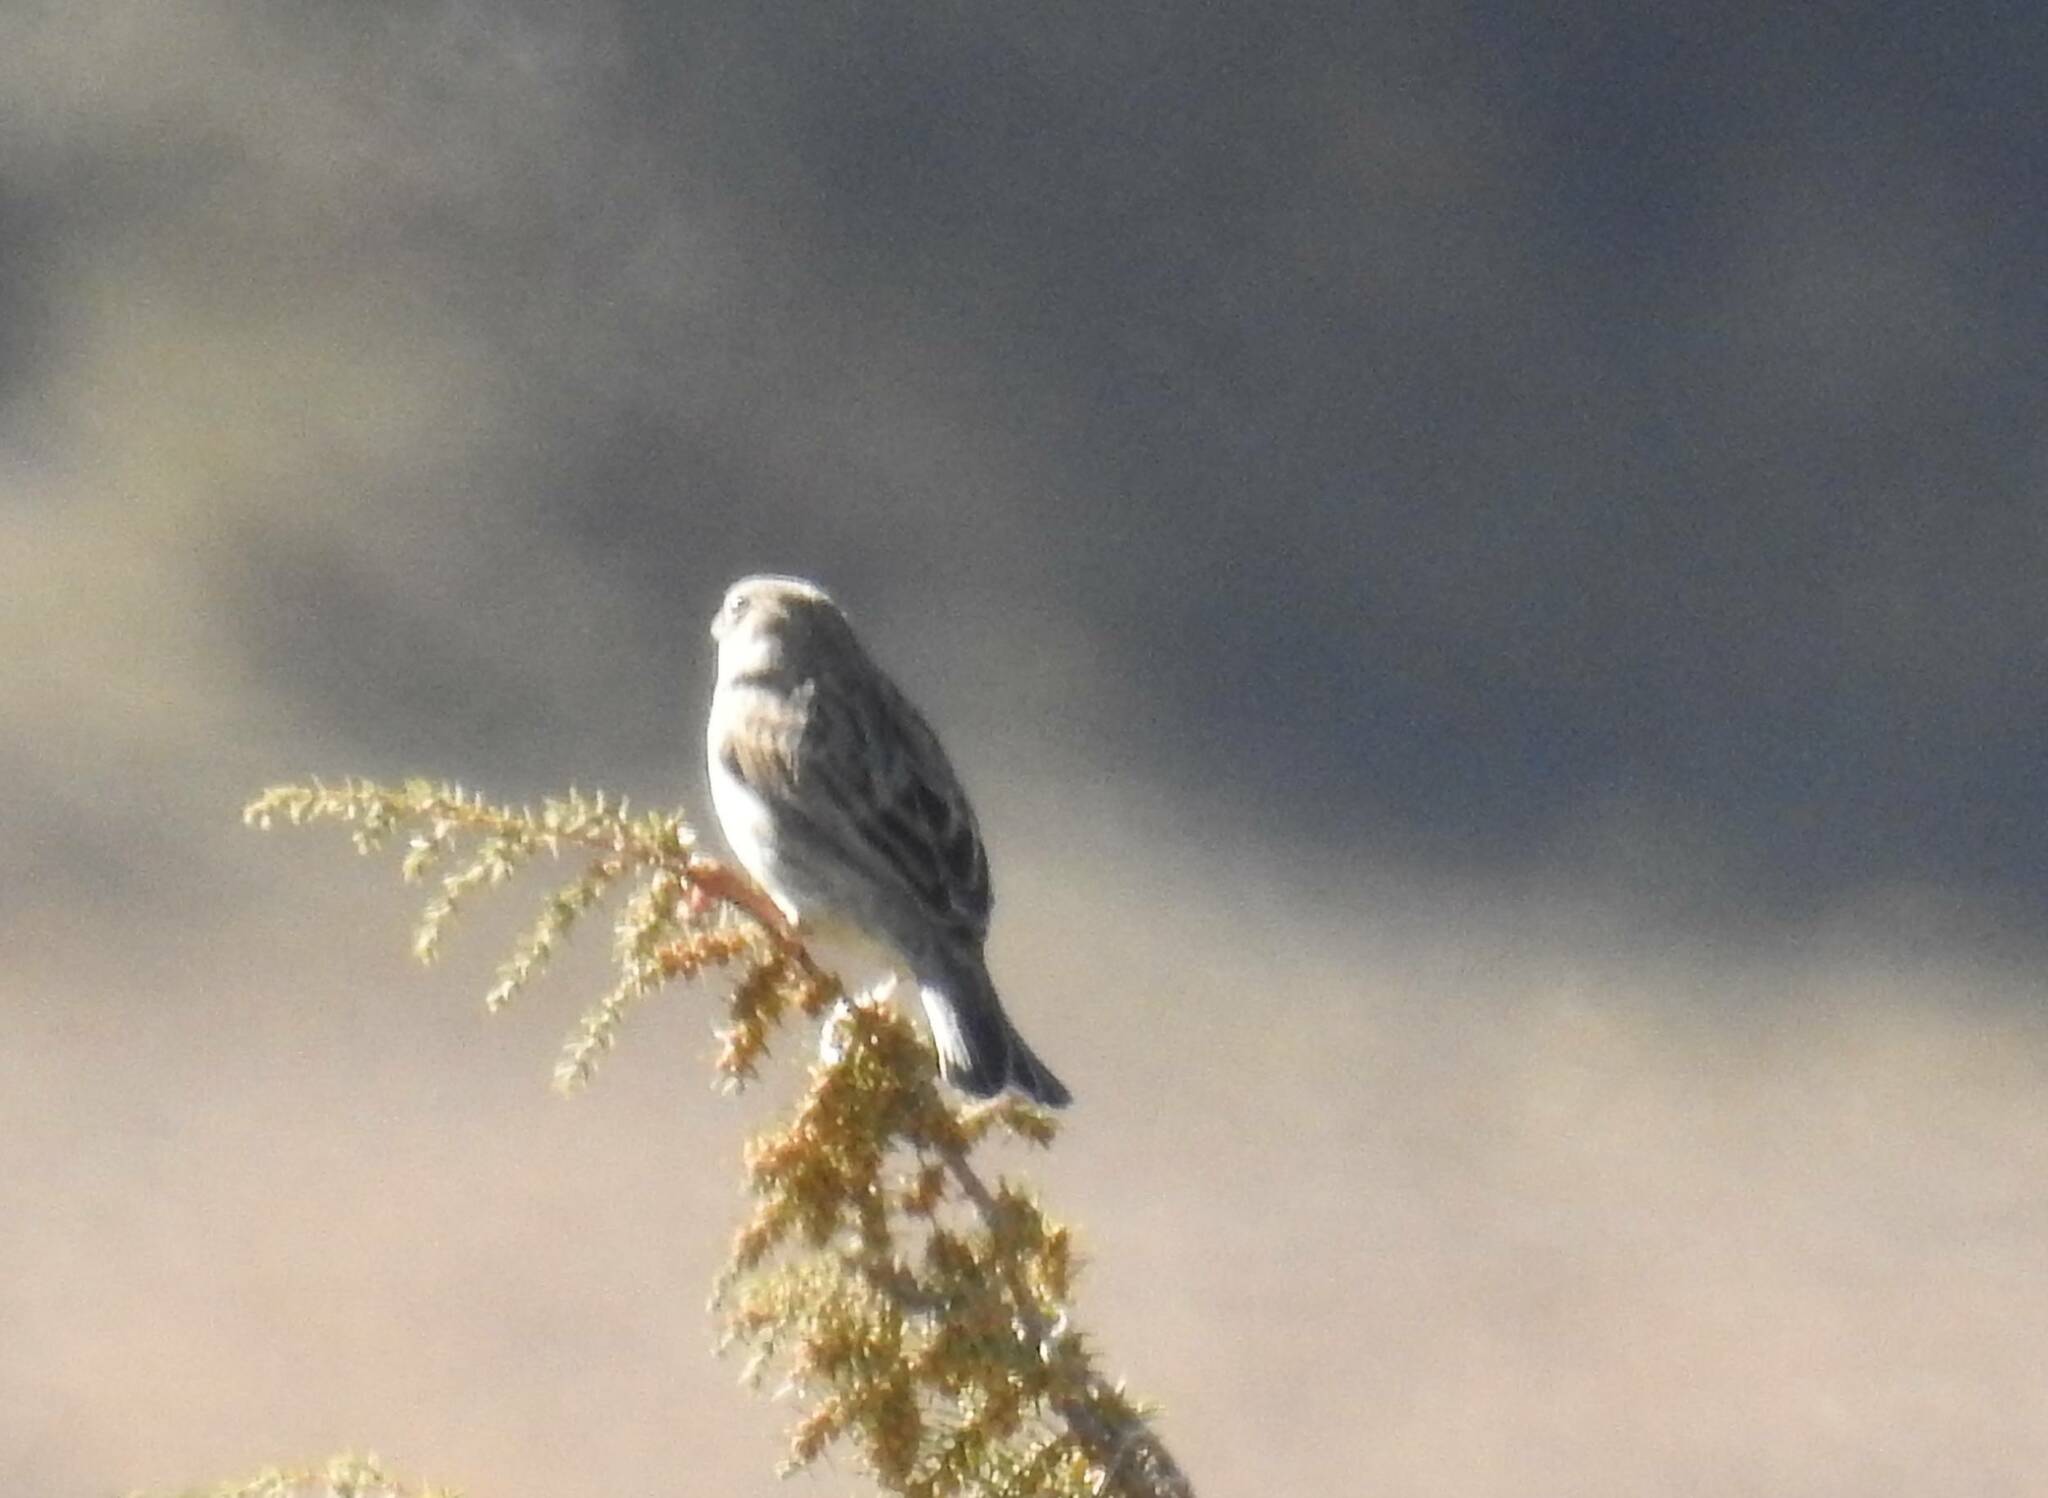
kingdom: Animalia
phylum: Chordata
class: Aves
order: Passeriformes
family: Fringillidae
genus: Linaria
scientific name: Linaria cannabina
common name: Common linnet
